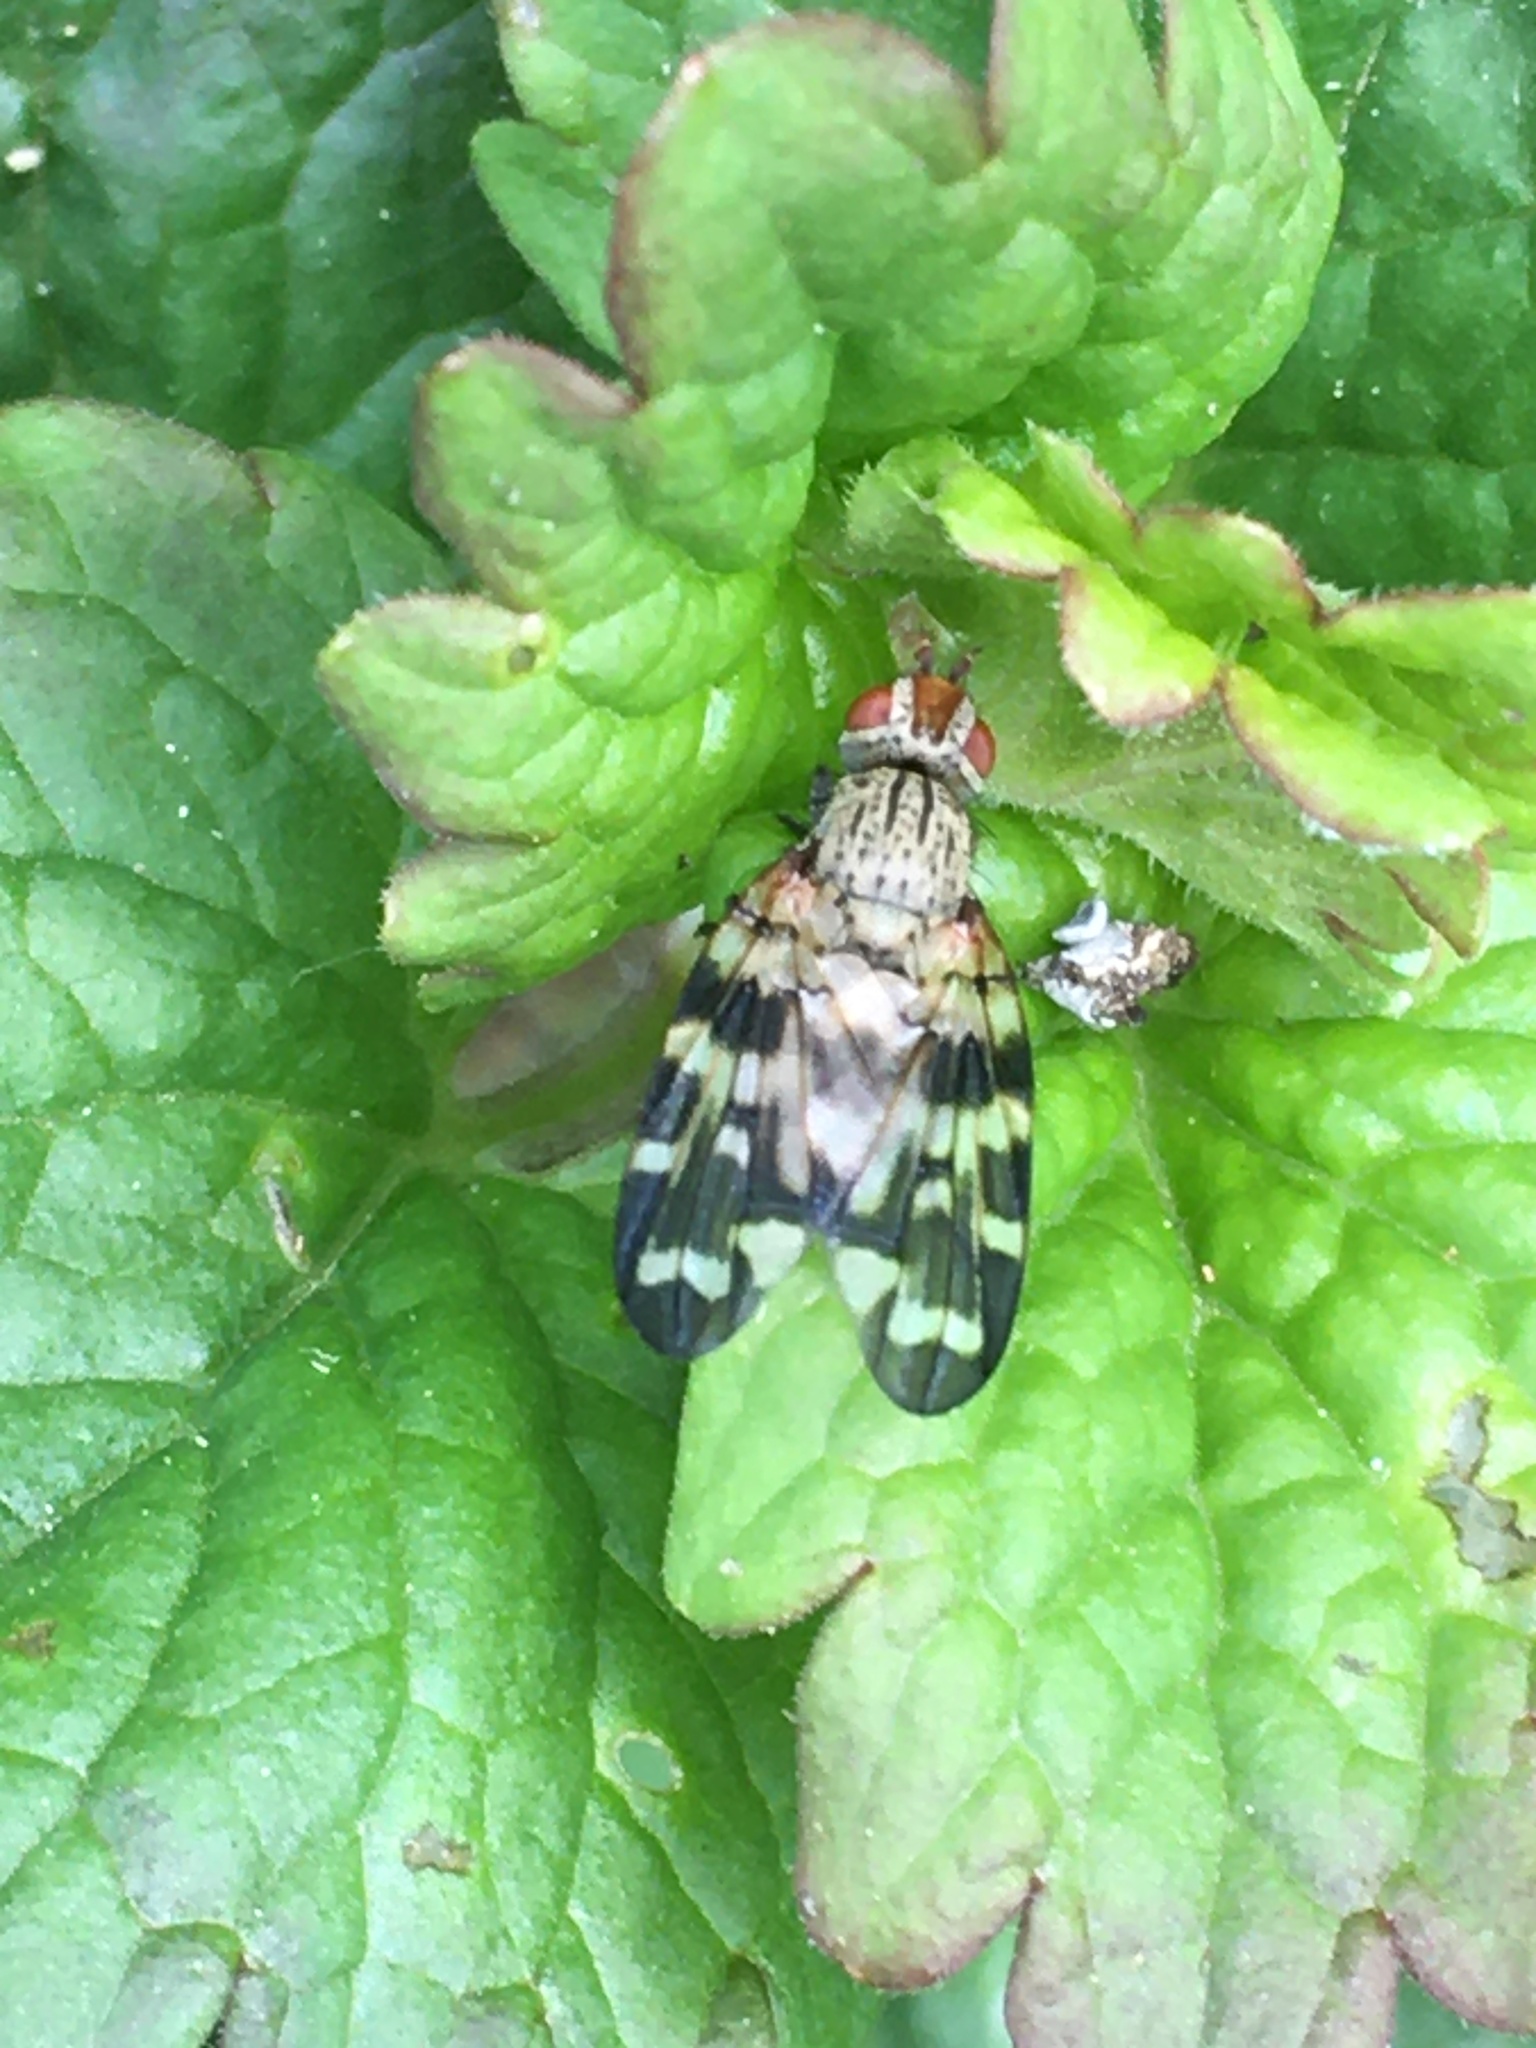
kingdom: Animalia
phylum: Arthropoda
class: Insecta
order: Diptera
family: Ulidiidae
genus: Otites
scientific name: Otites centralis
